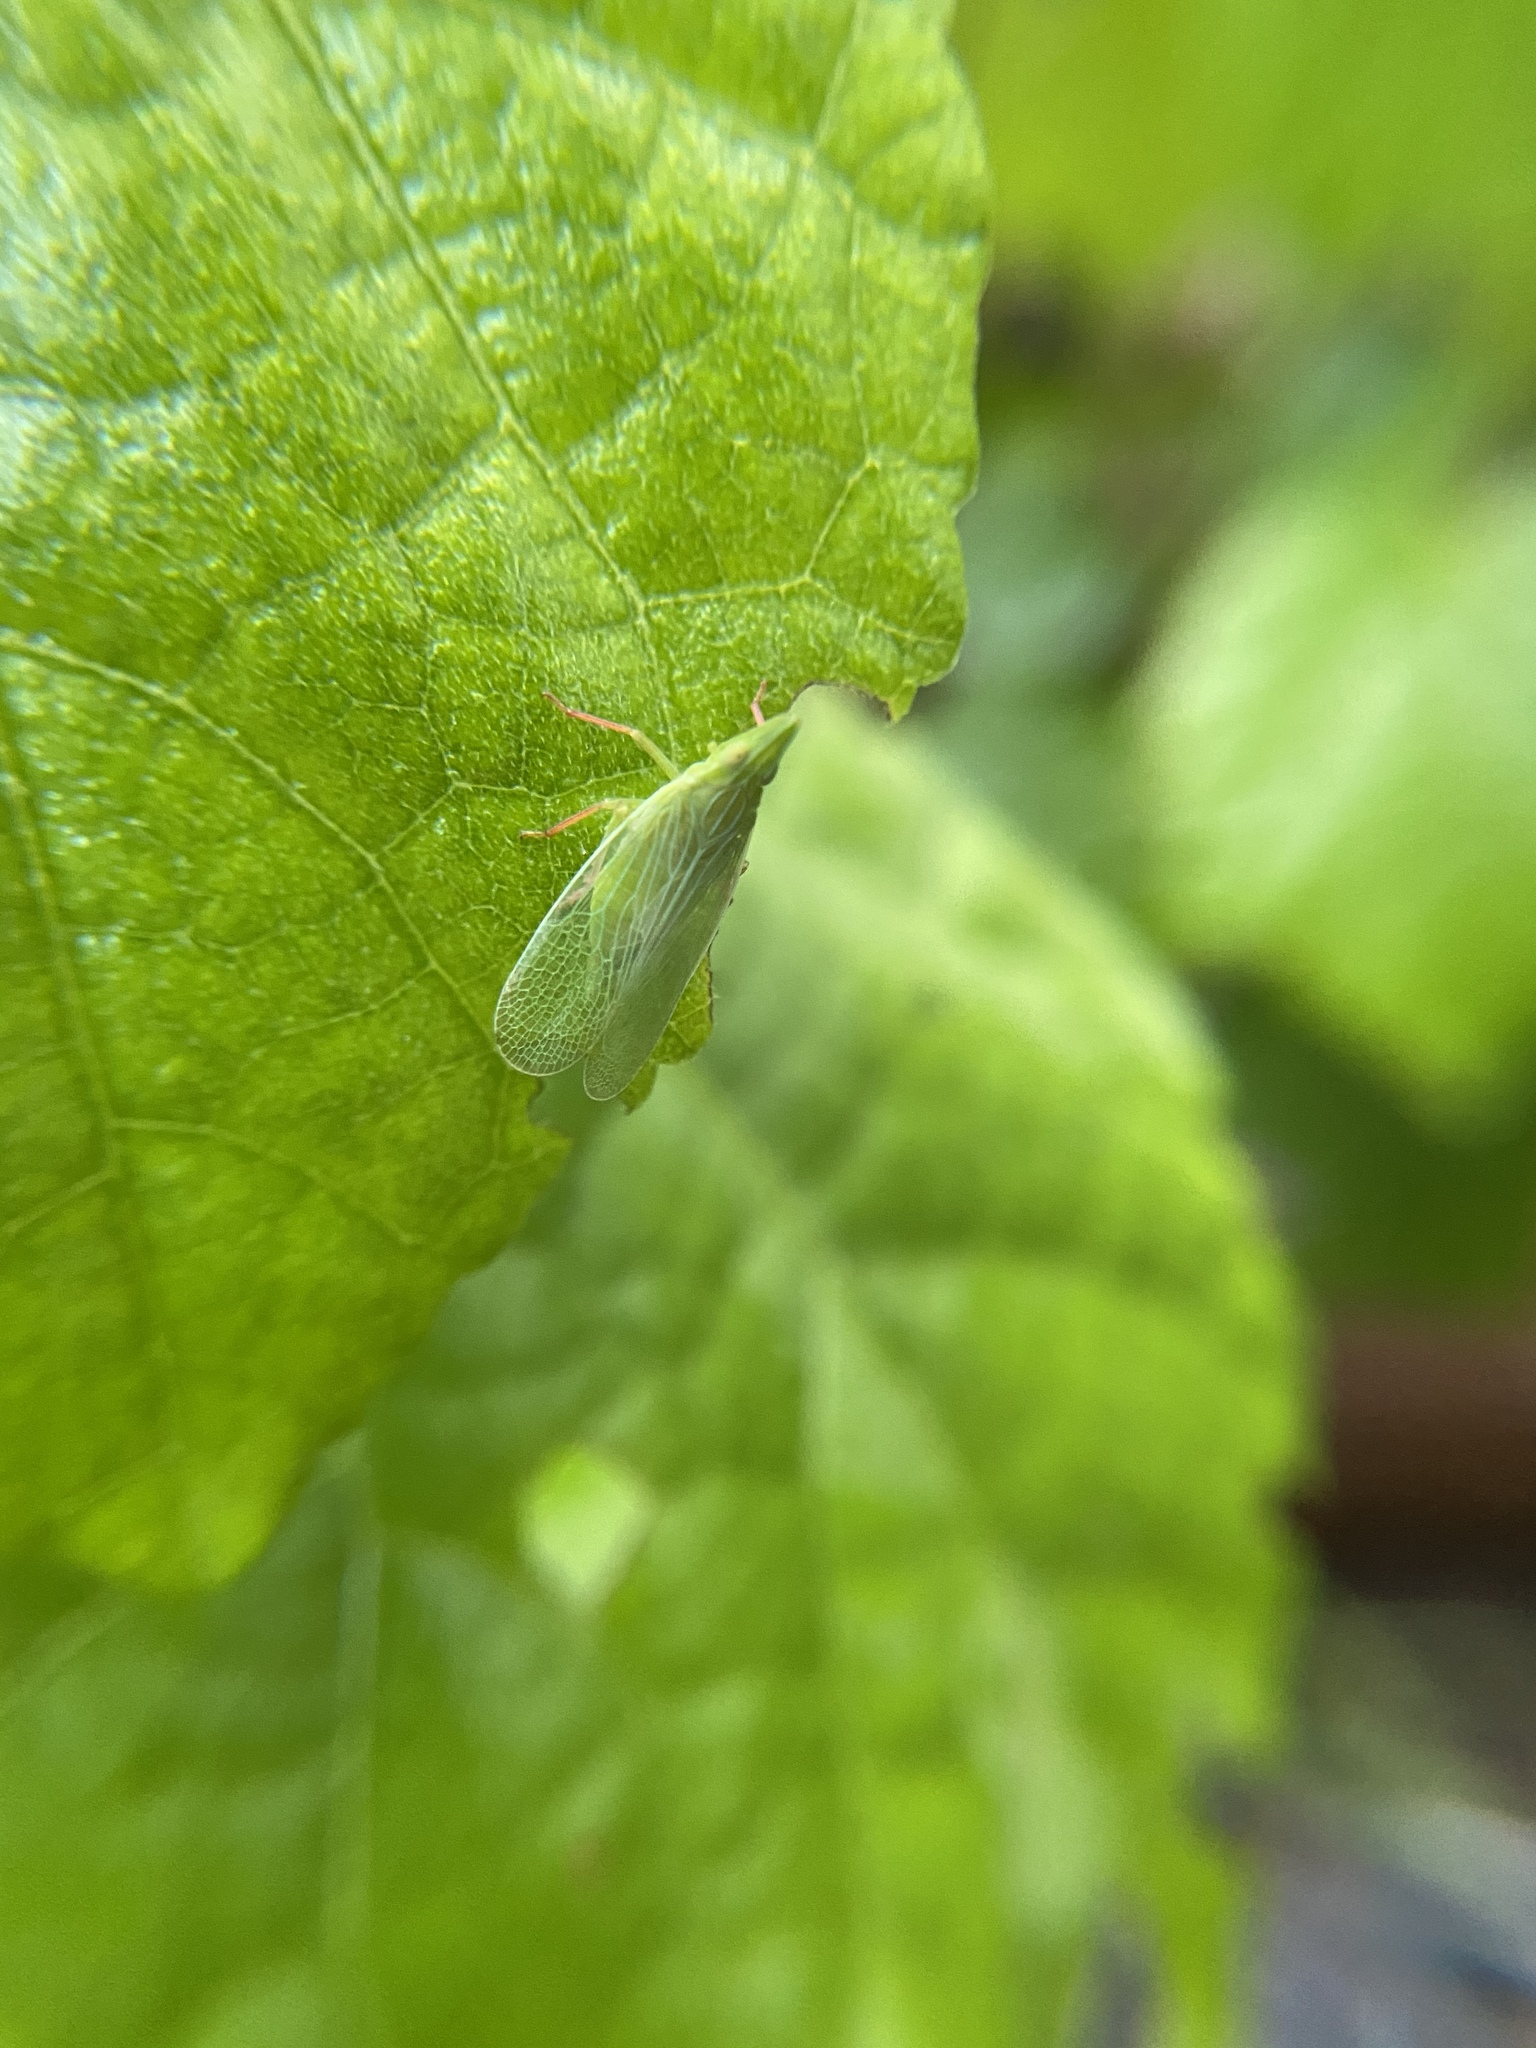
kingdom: Animalia
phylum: Arthropoda
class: Insecta
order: Hemiptera
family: Dictyopharidae
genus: Rhynchomitra
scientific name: Rhynchomitra recurva
